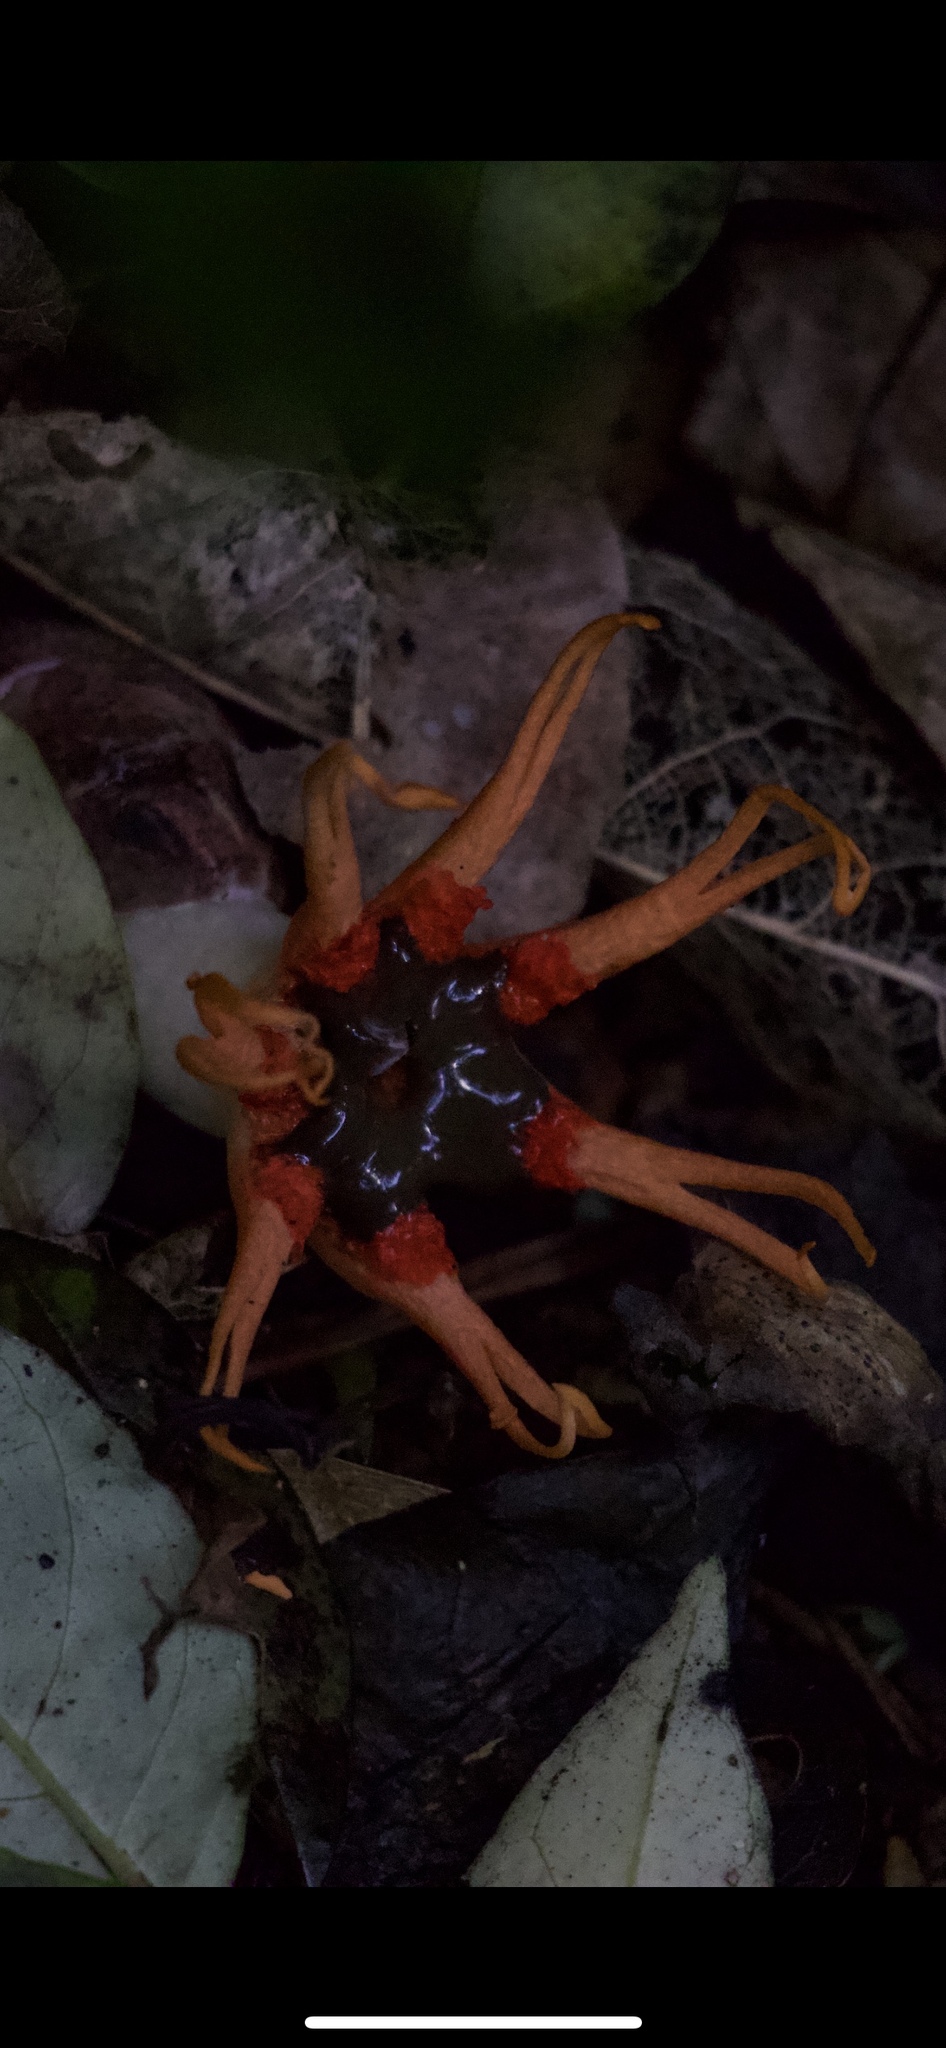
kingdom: Fungi
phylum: Basidiomycota
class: Agaricomycetes
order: Phallales
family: Phallaceae
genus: Aseroe
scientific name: Aseroe rubra
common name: Starfish fungus
